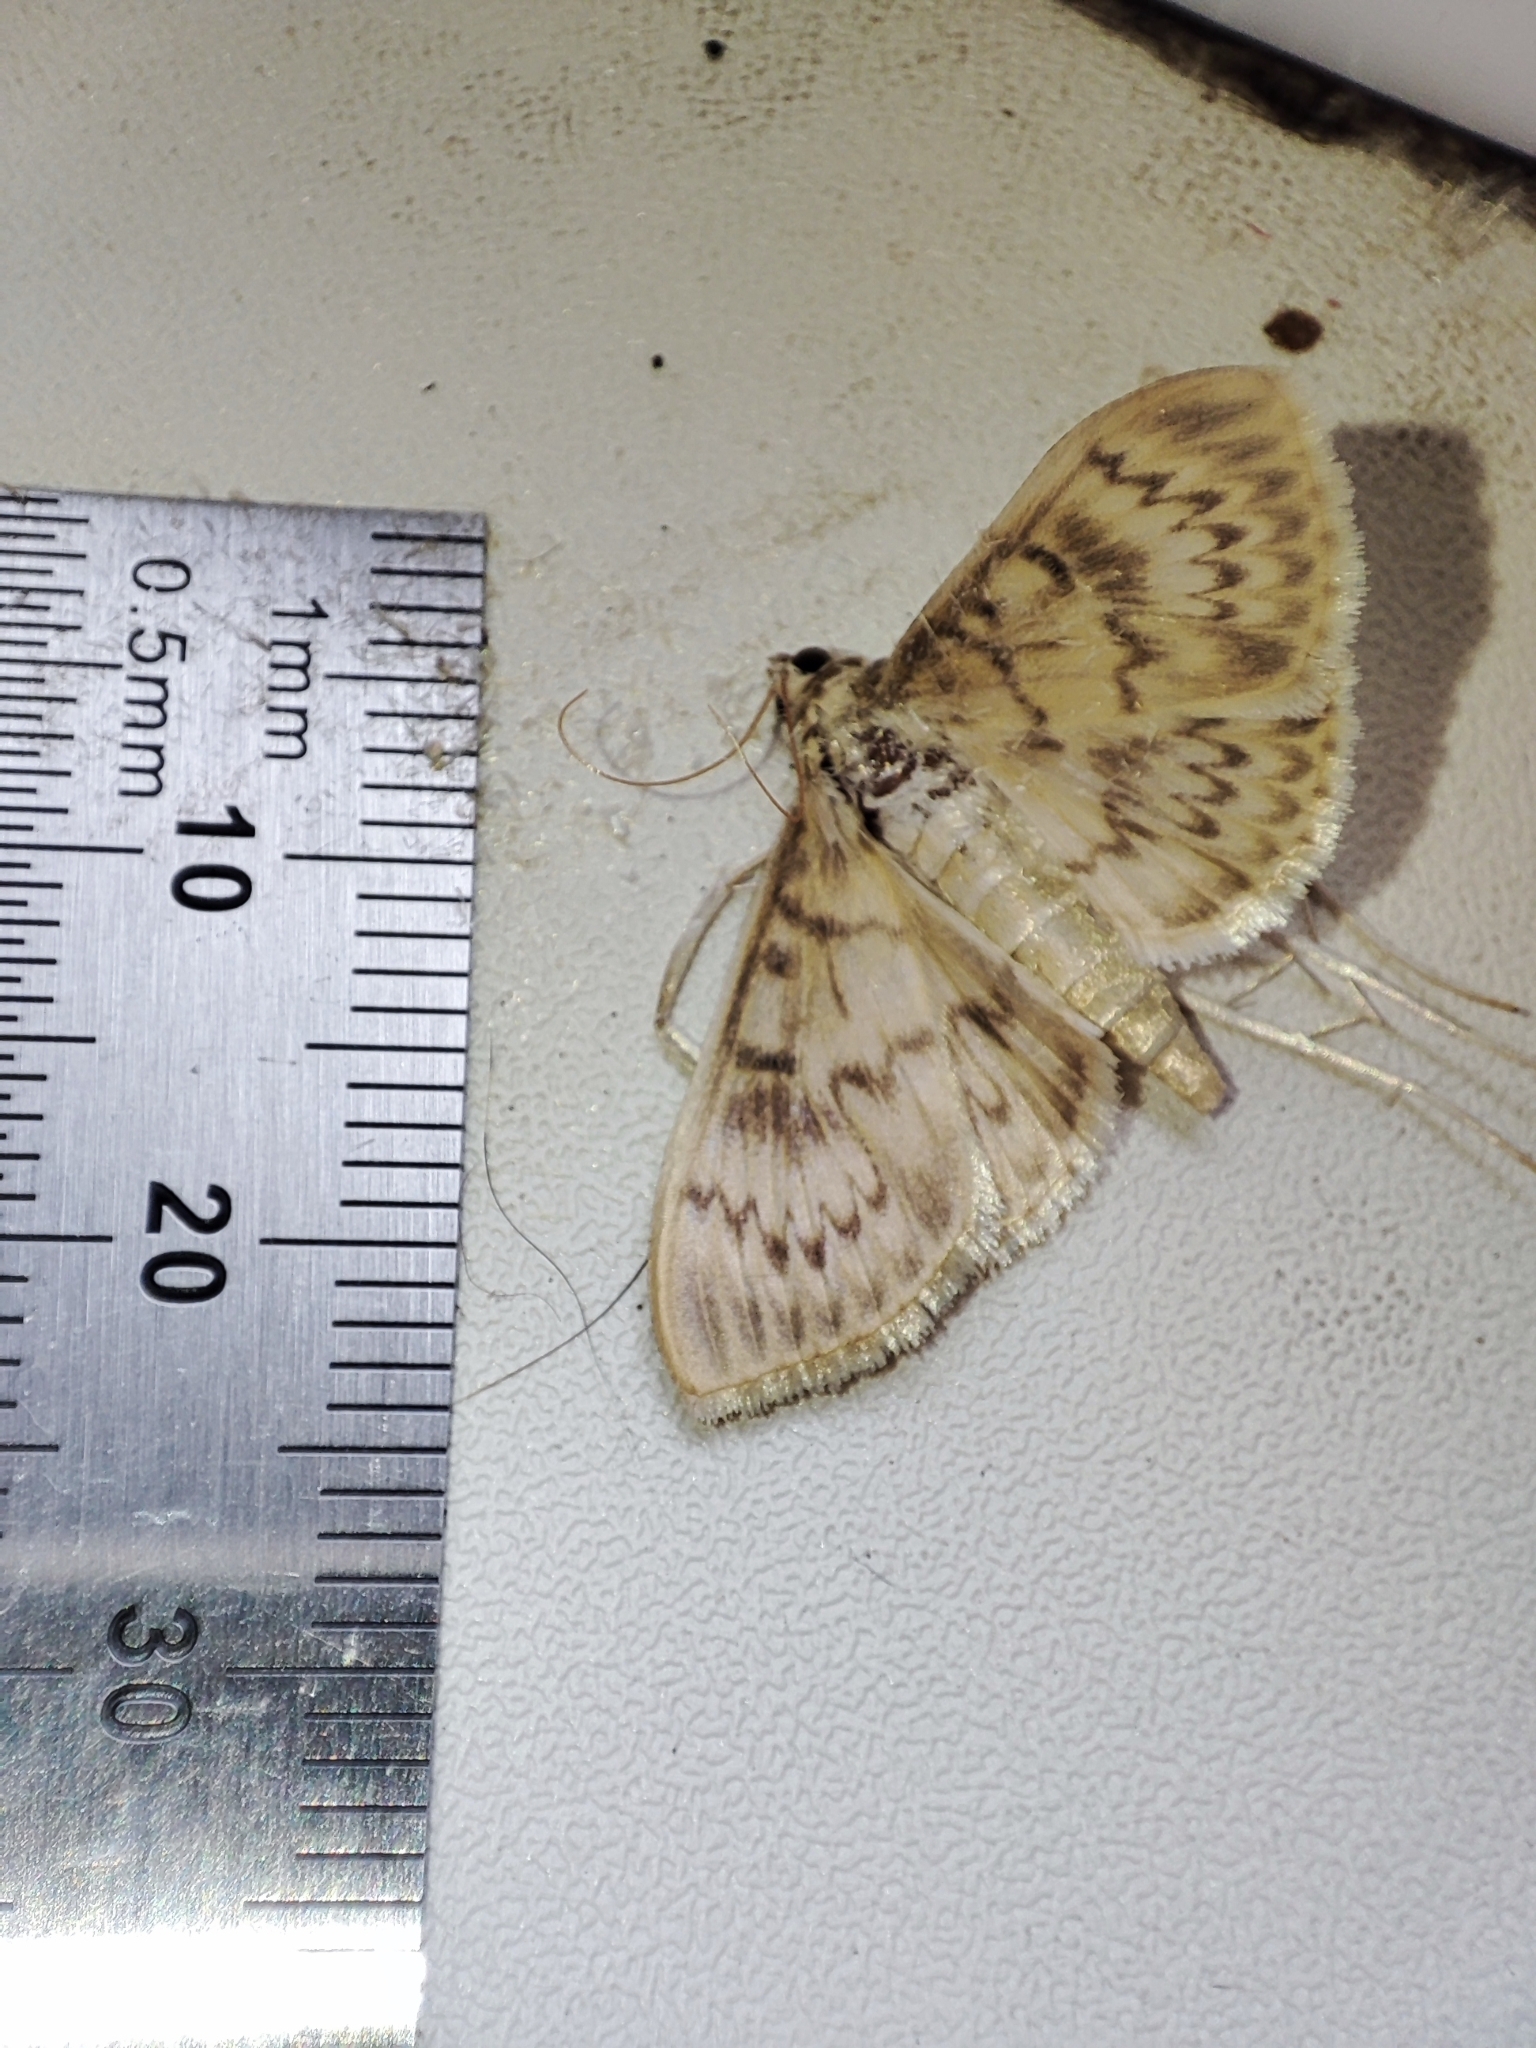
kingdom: Animalia
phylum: Arthropoda
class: Insecta
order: Lepidoptera
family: Crambidae
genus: Patania
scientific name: Patania ruralis
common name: Mother of pearl
